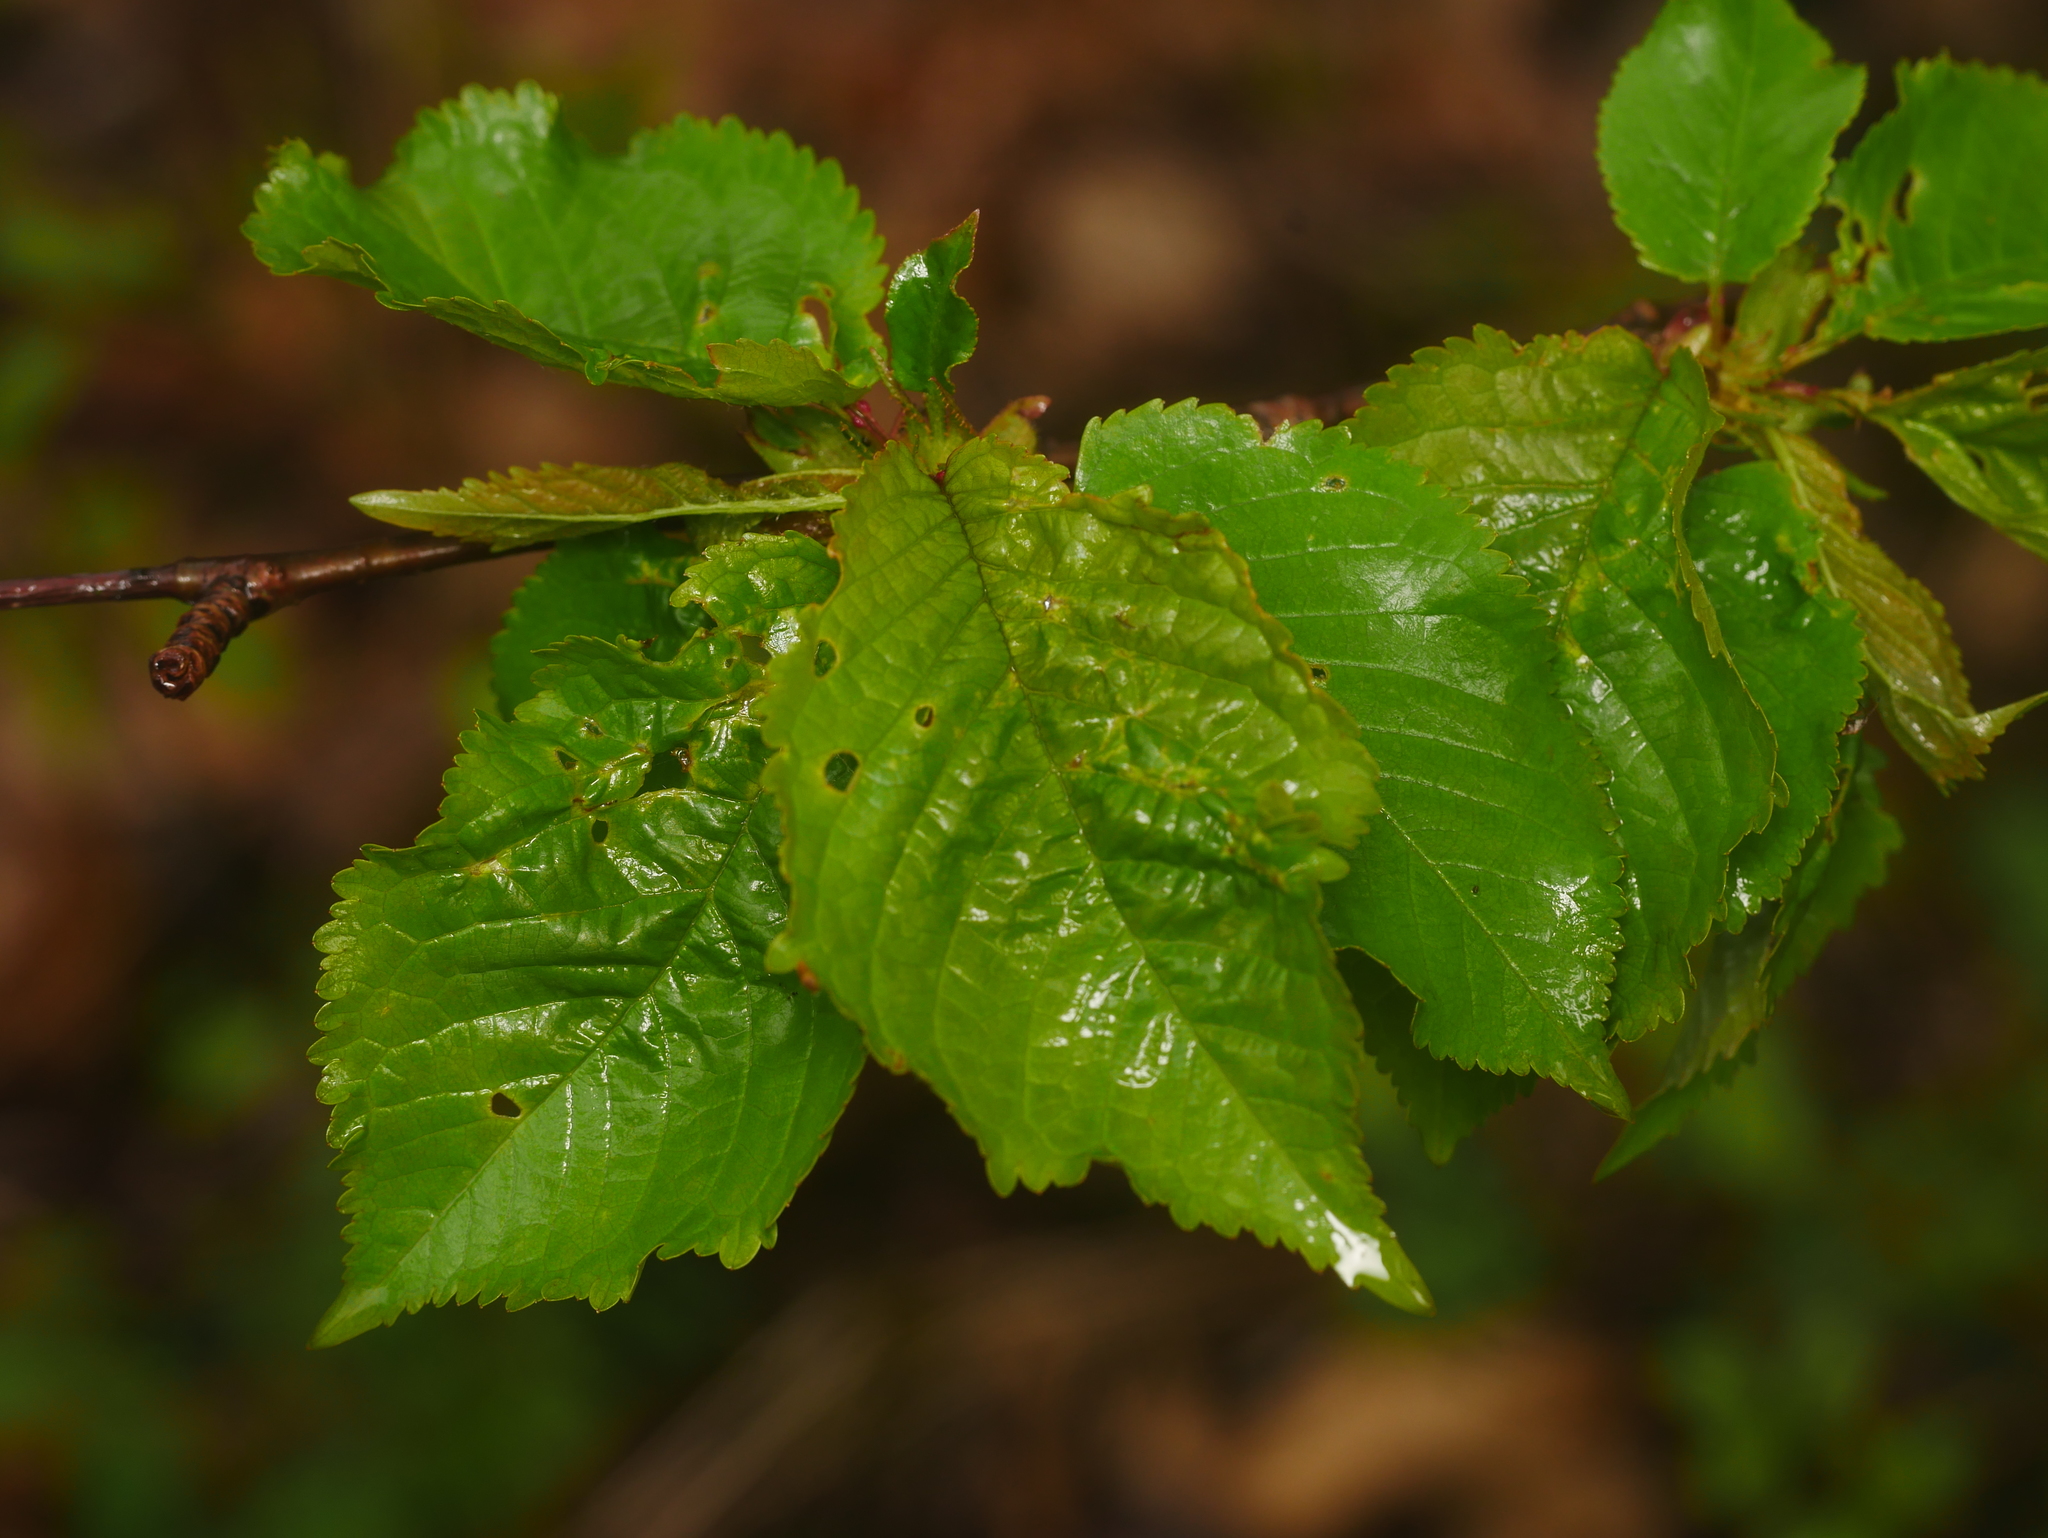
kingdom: Plantae
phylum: Tracheophyta
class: Magnoliopsida
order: Rosales
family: Rosaceae
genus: Prunus
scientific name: Prunus avium
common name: Sweet cherry
